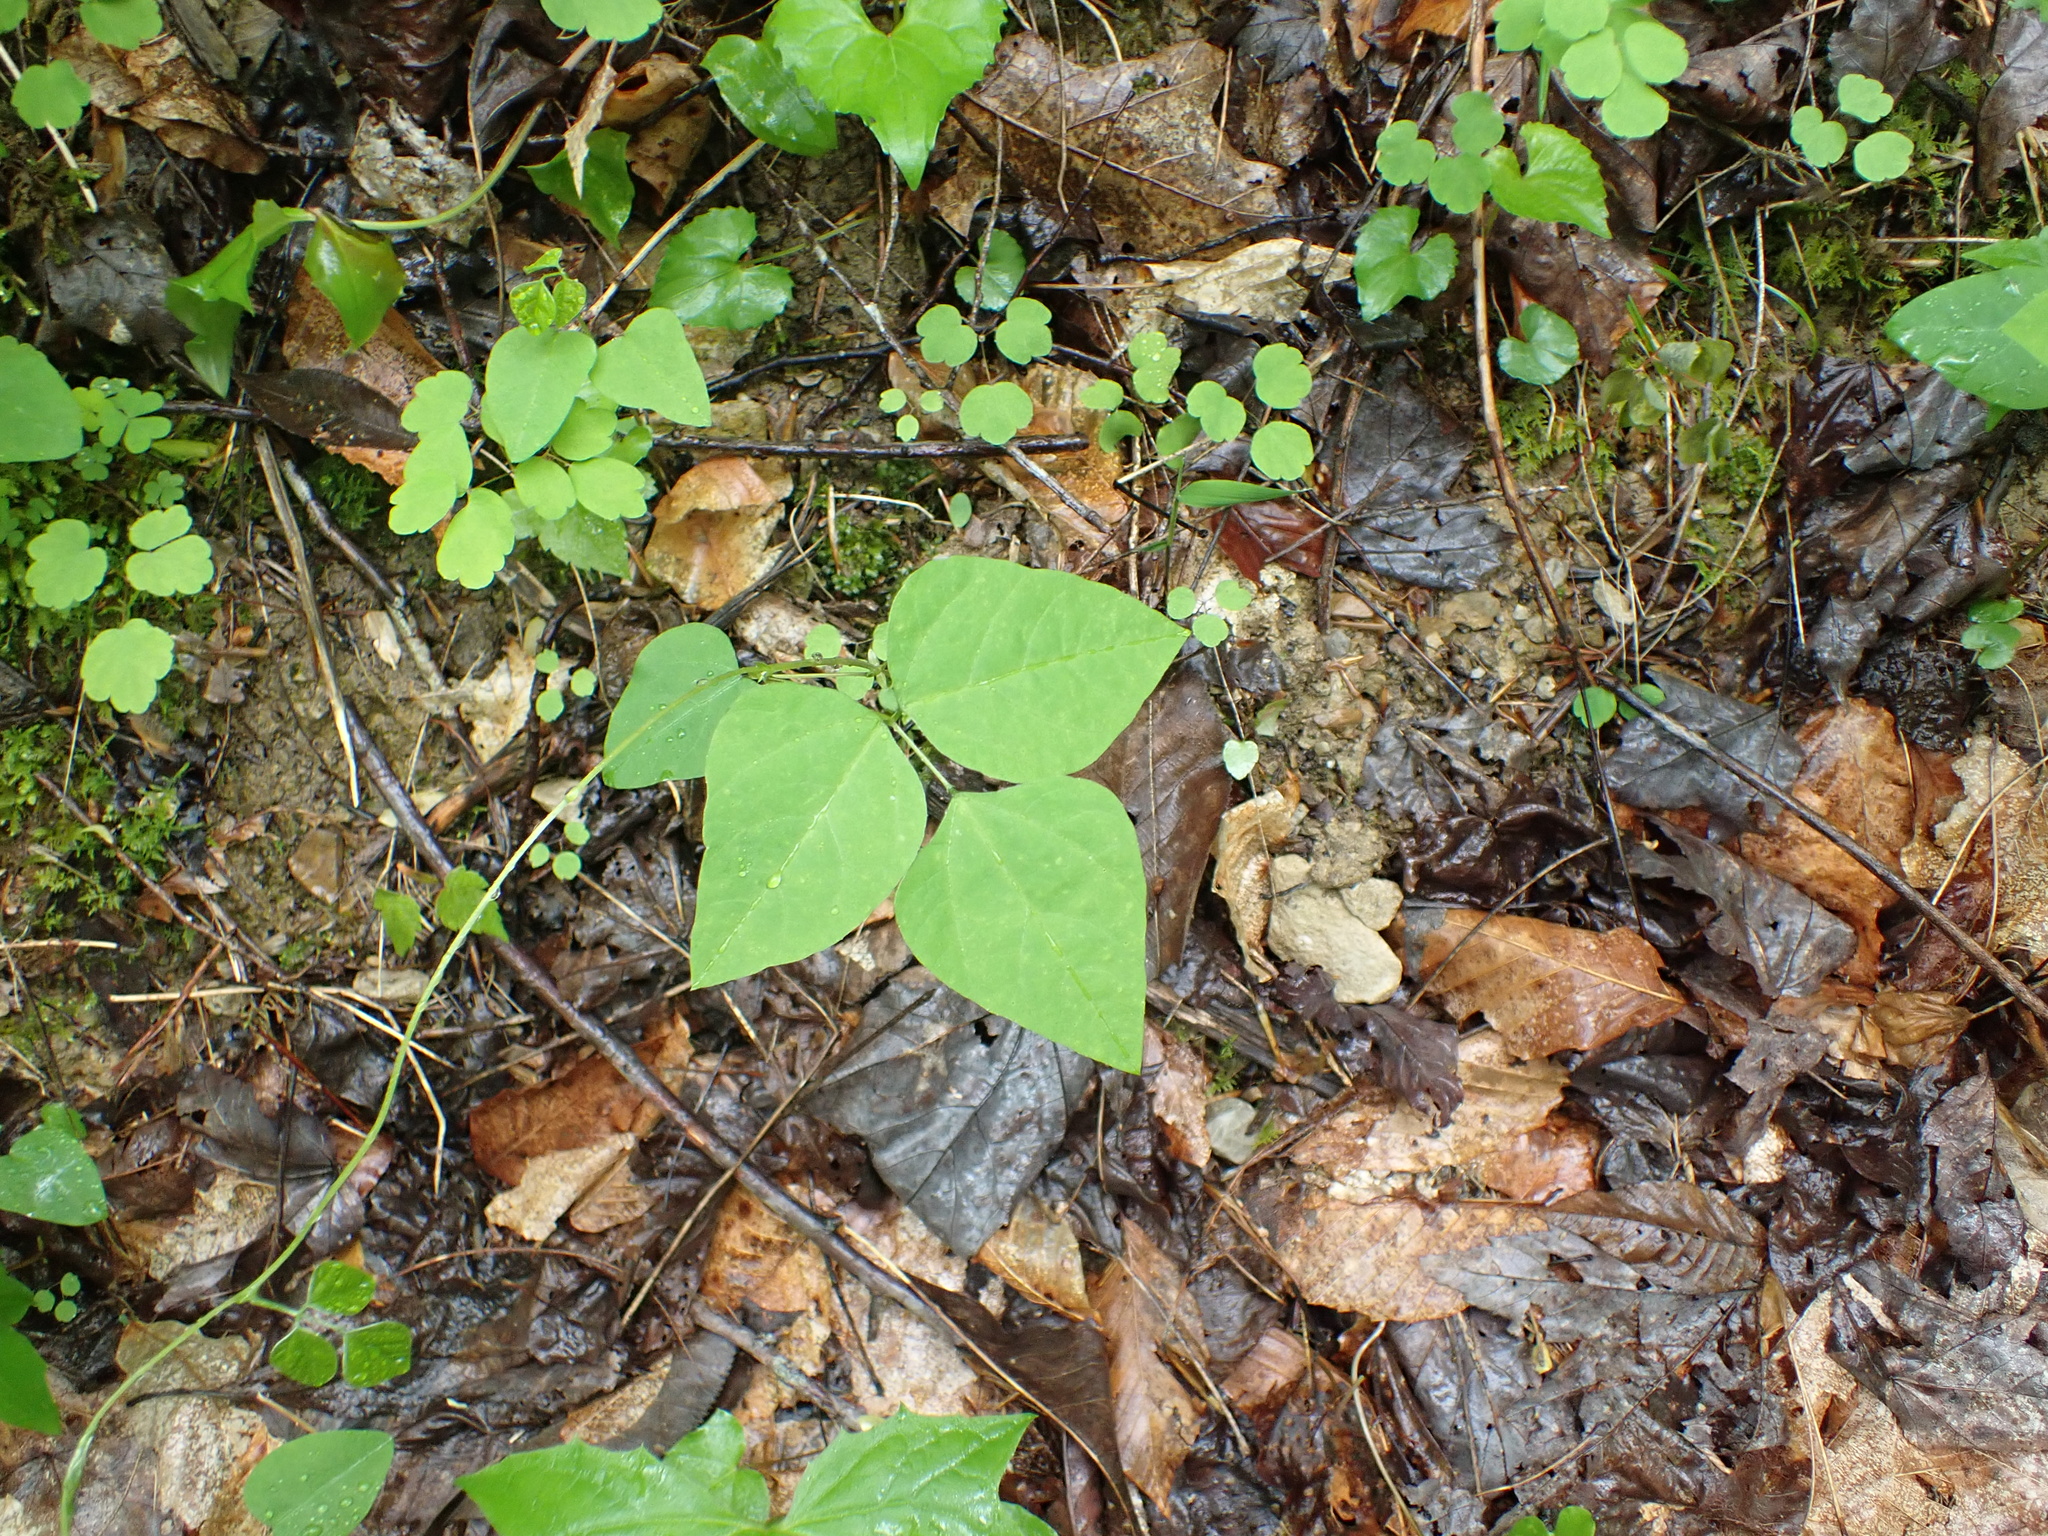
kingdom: Plantae
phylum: Tracheophyta
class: Magnoliopsida
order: Fabales
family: Fabaceae
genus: Amphicarpaea
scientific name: Amphicarpaea bracteata
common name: American hog peanut
